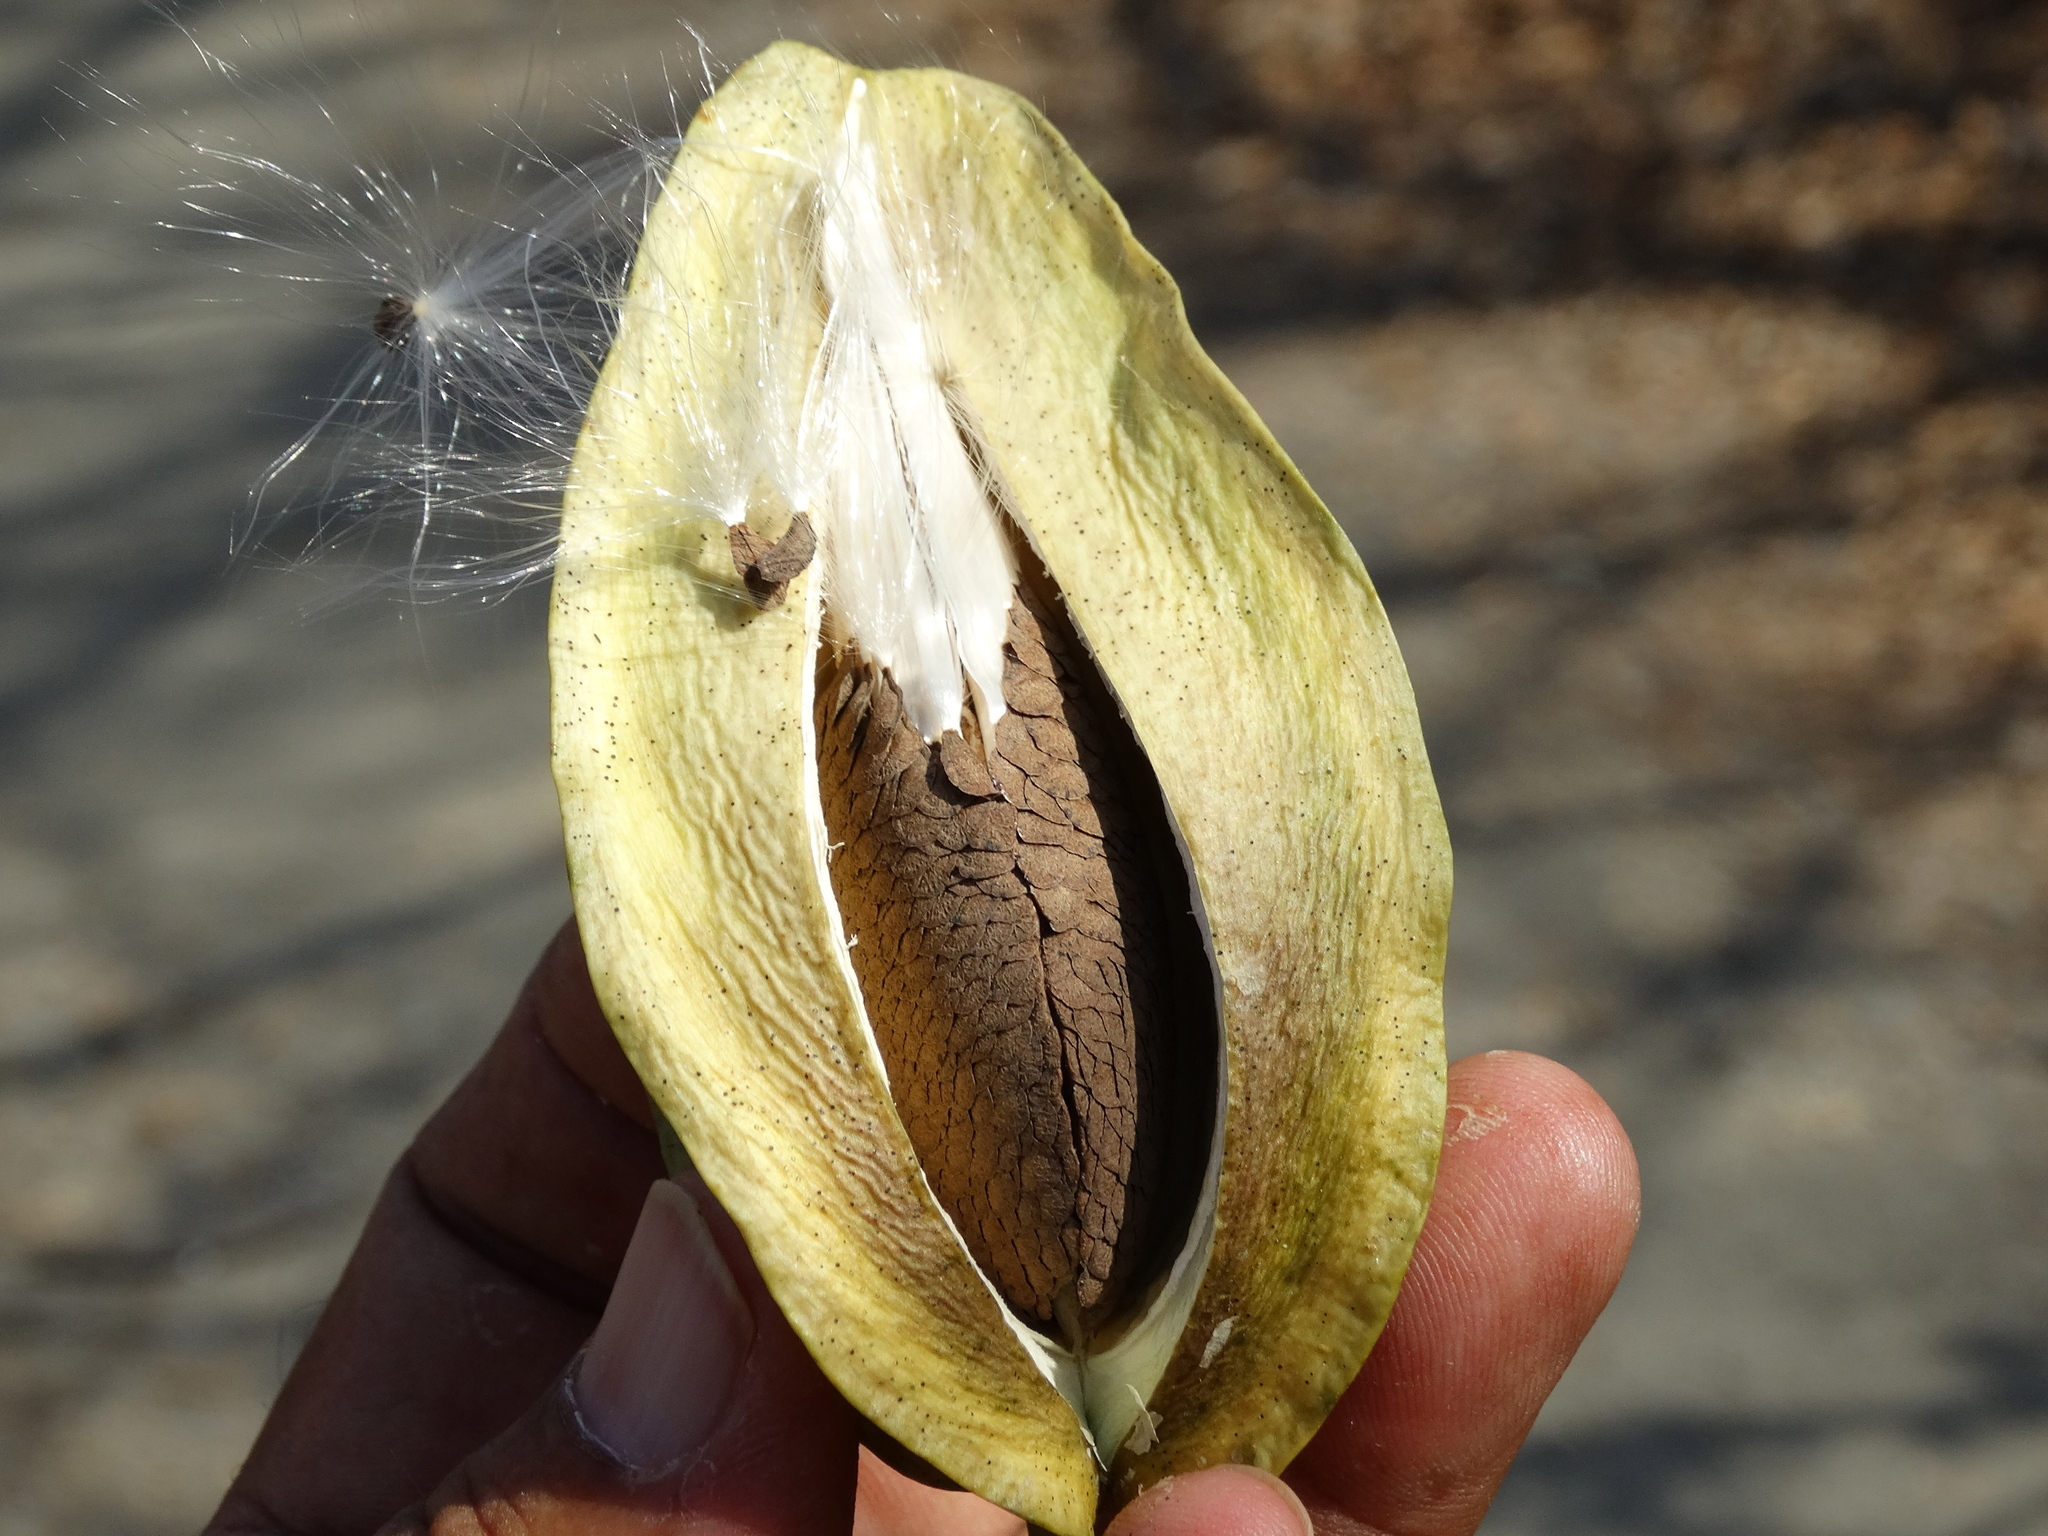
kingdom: Plantae
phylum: Tracheophyta
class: Magnoliopsida
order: Gentianales
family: Asclepiadaceae
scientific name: Asclepiadaceae
